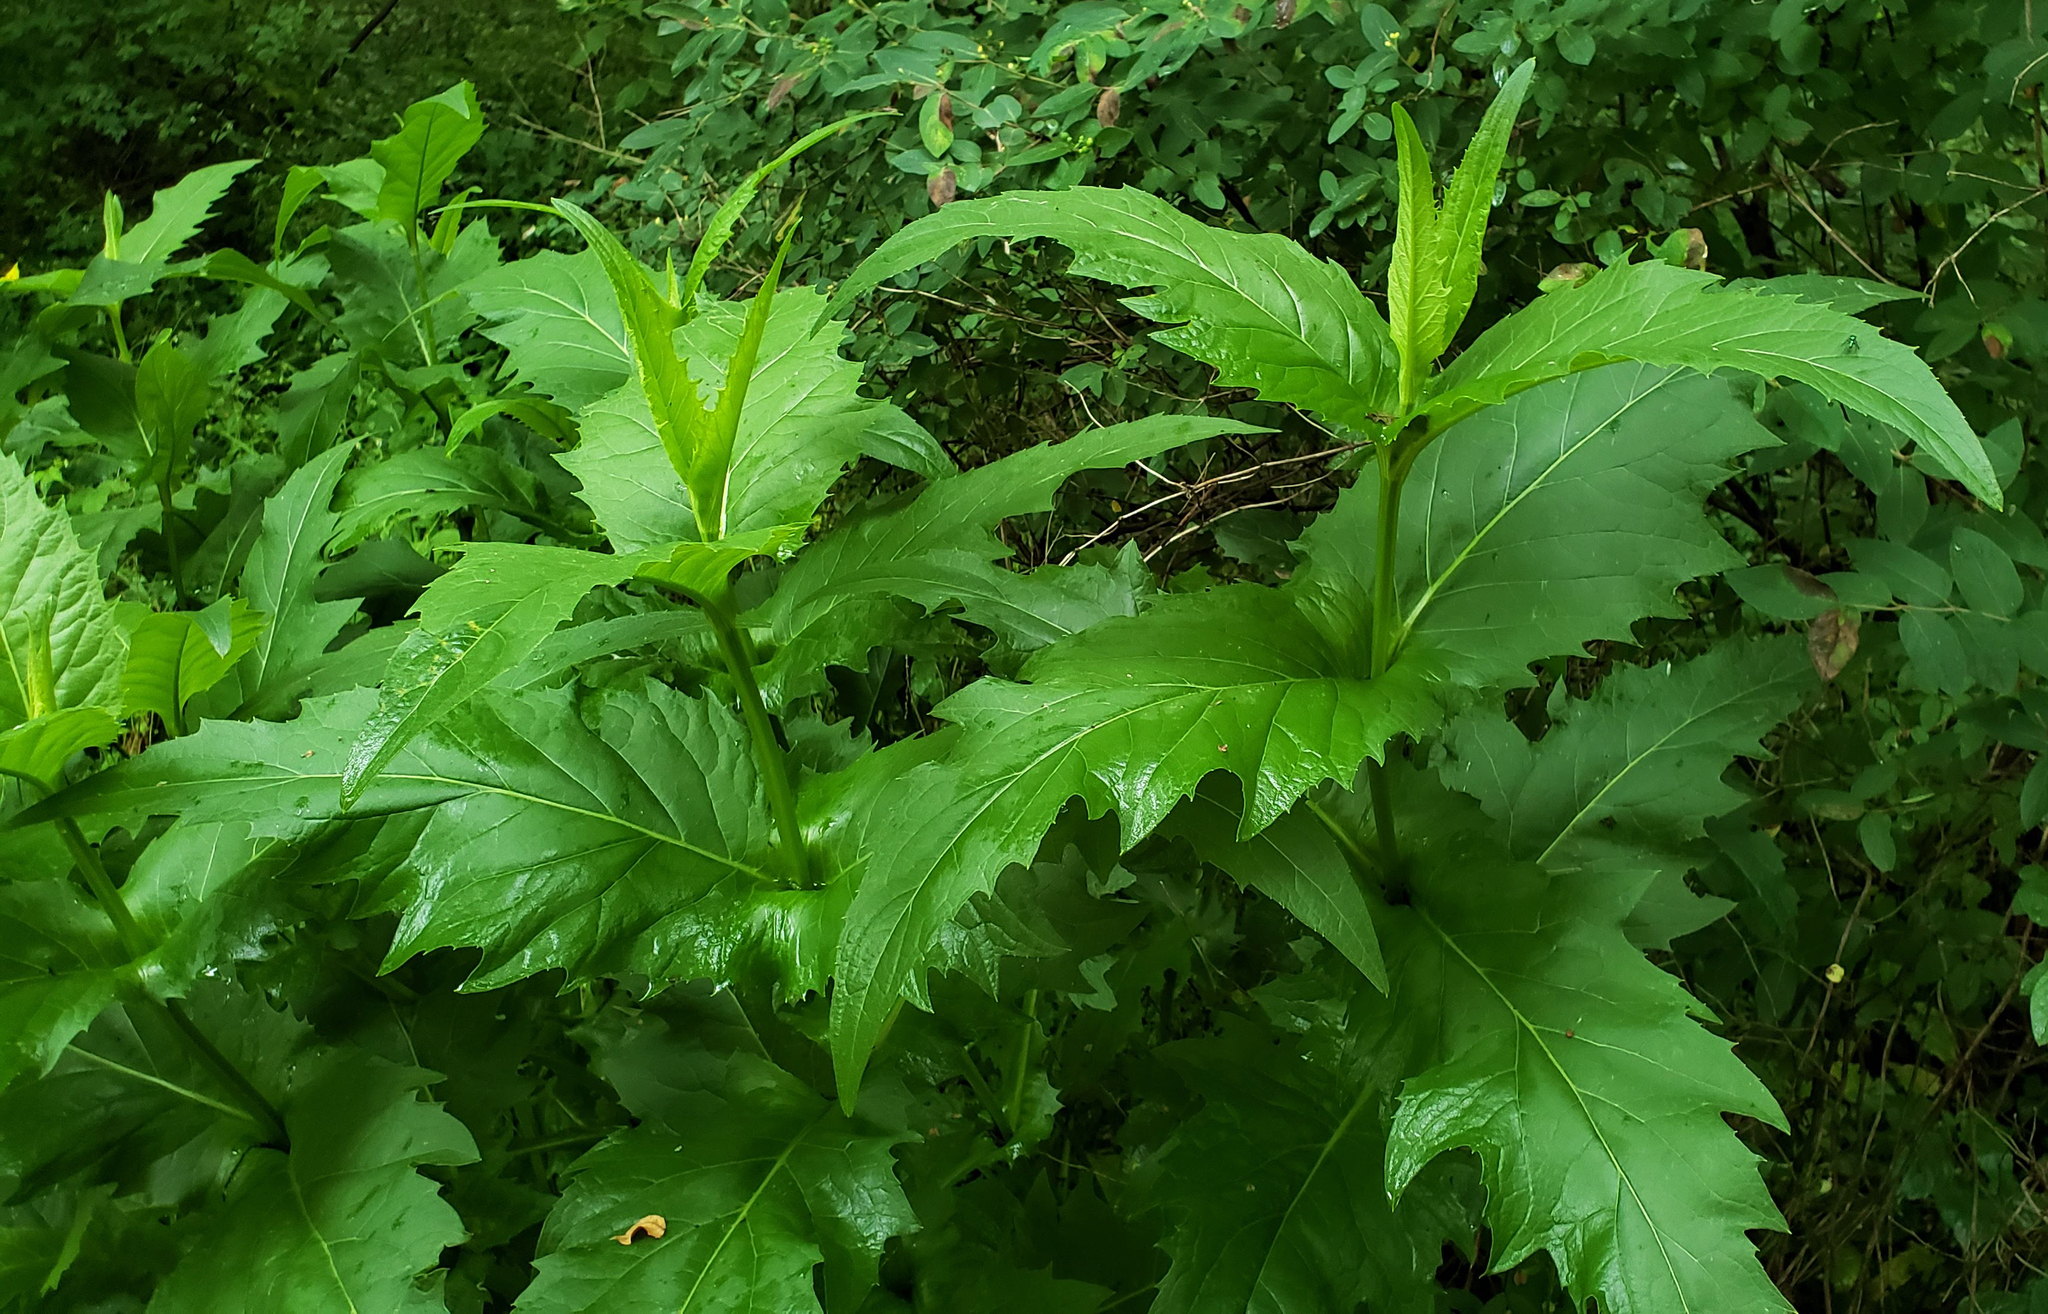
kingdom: Plantae
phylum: Tracheophyta
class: Magnoliopsida
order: Asterales
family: Asteraceae
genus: Silphium
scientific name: Silphium perfoliatum
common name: Cup-plant
